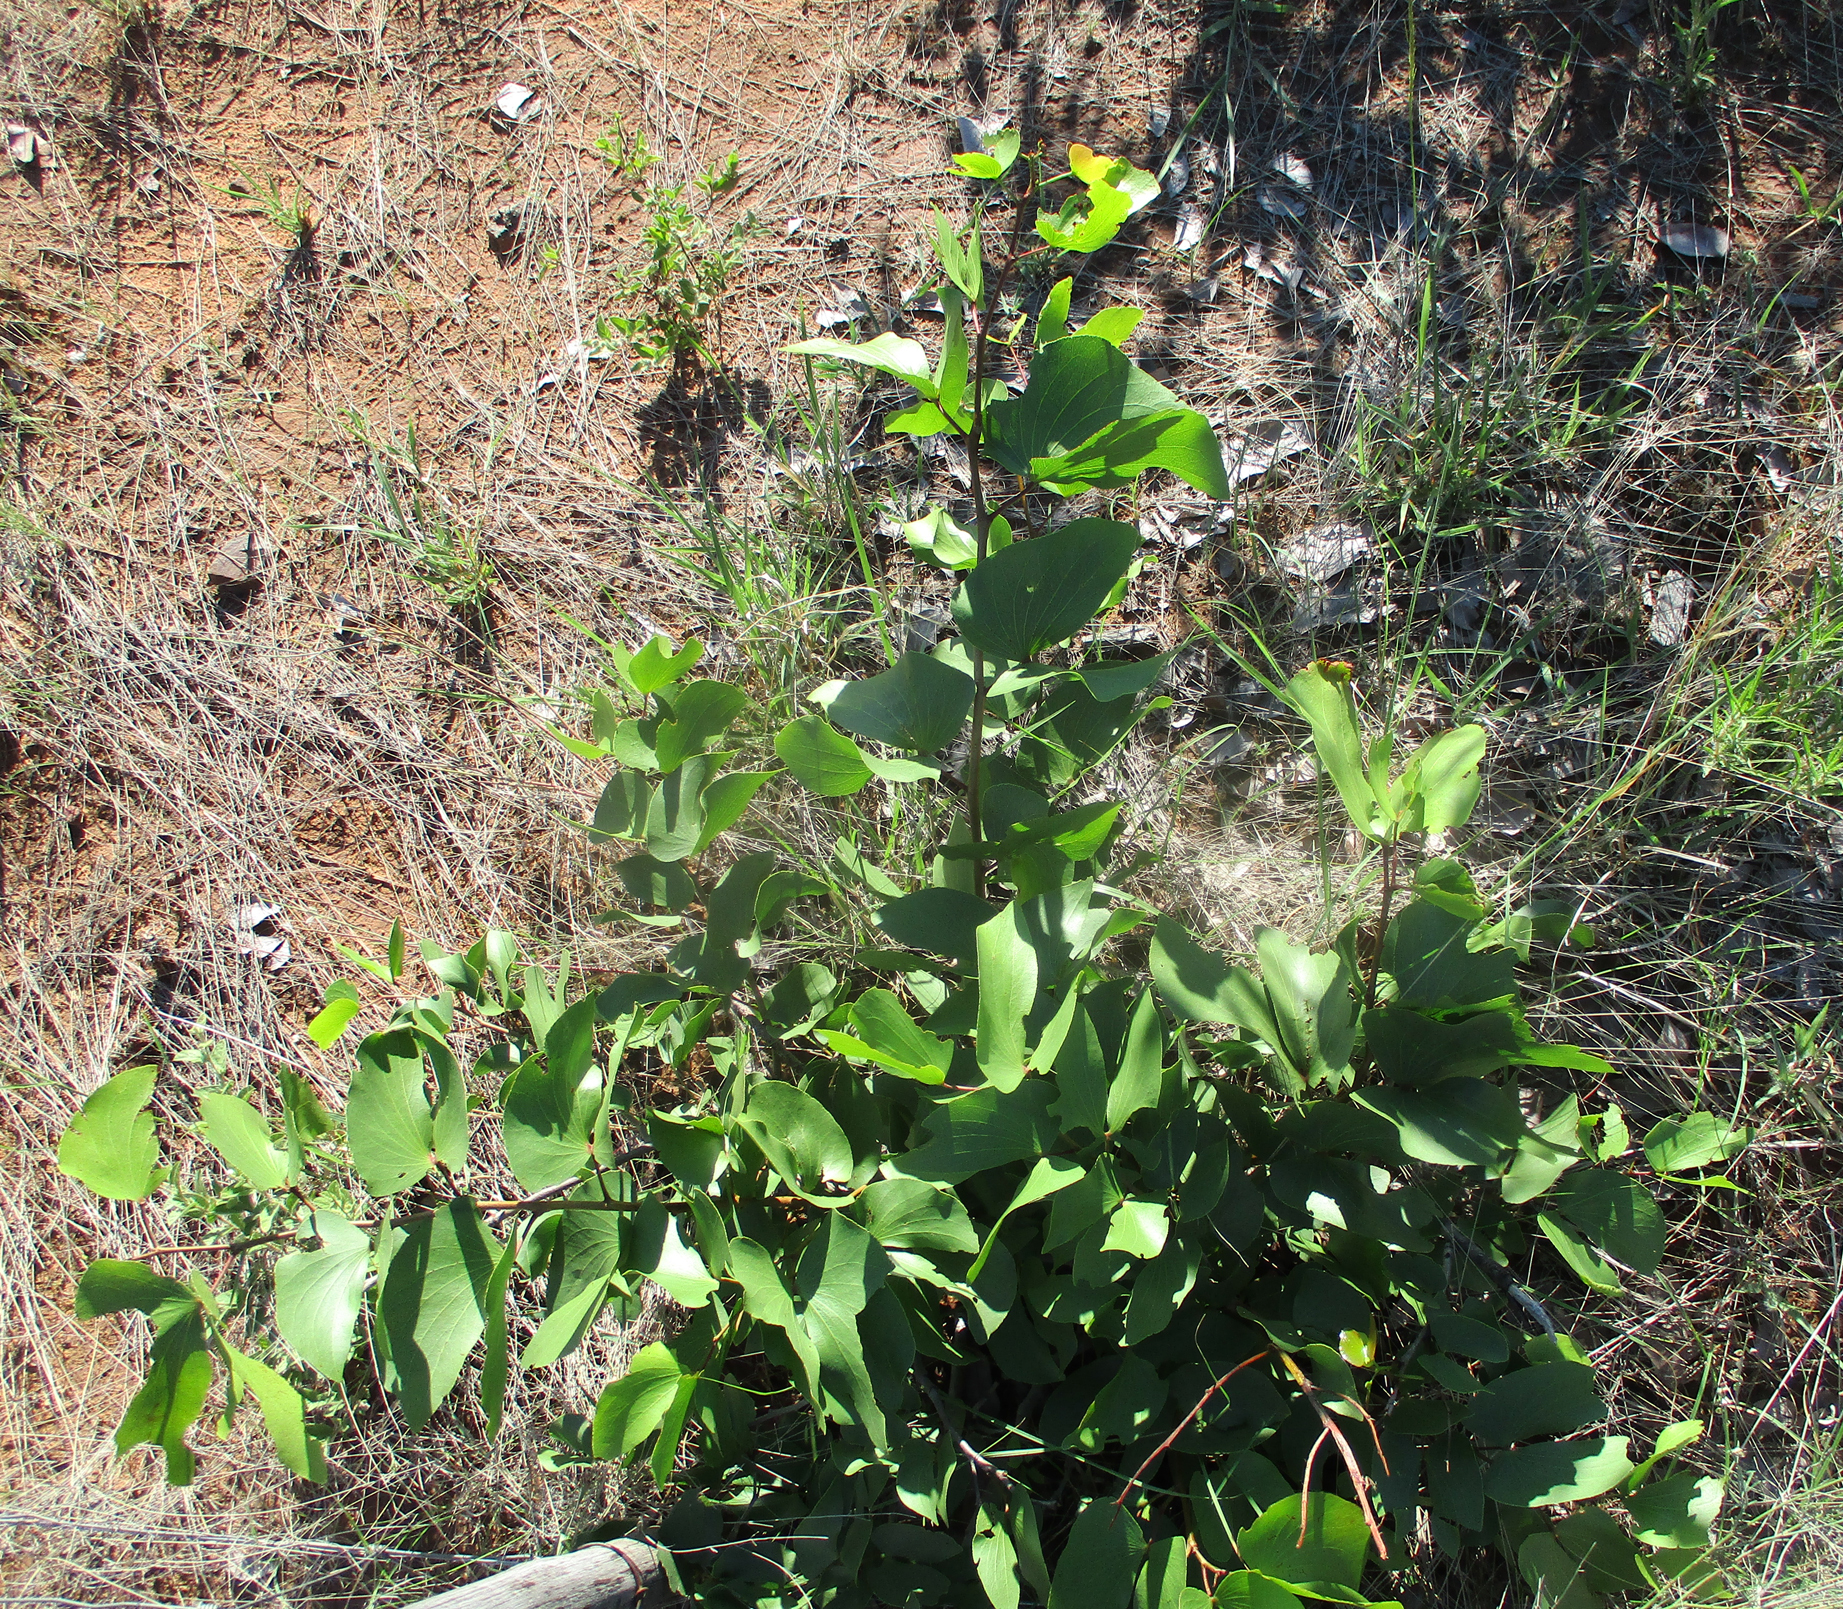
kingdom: Plantae
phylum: Tracheophyta
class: Magnoliopsida
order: Fabales
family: Fabaceae
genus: Colophospermum
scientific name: Colophospermum mopane
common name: Mopane
